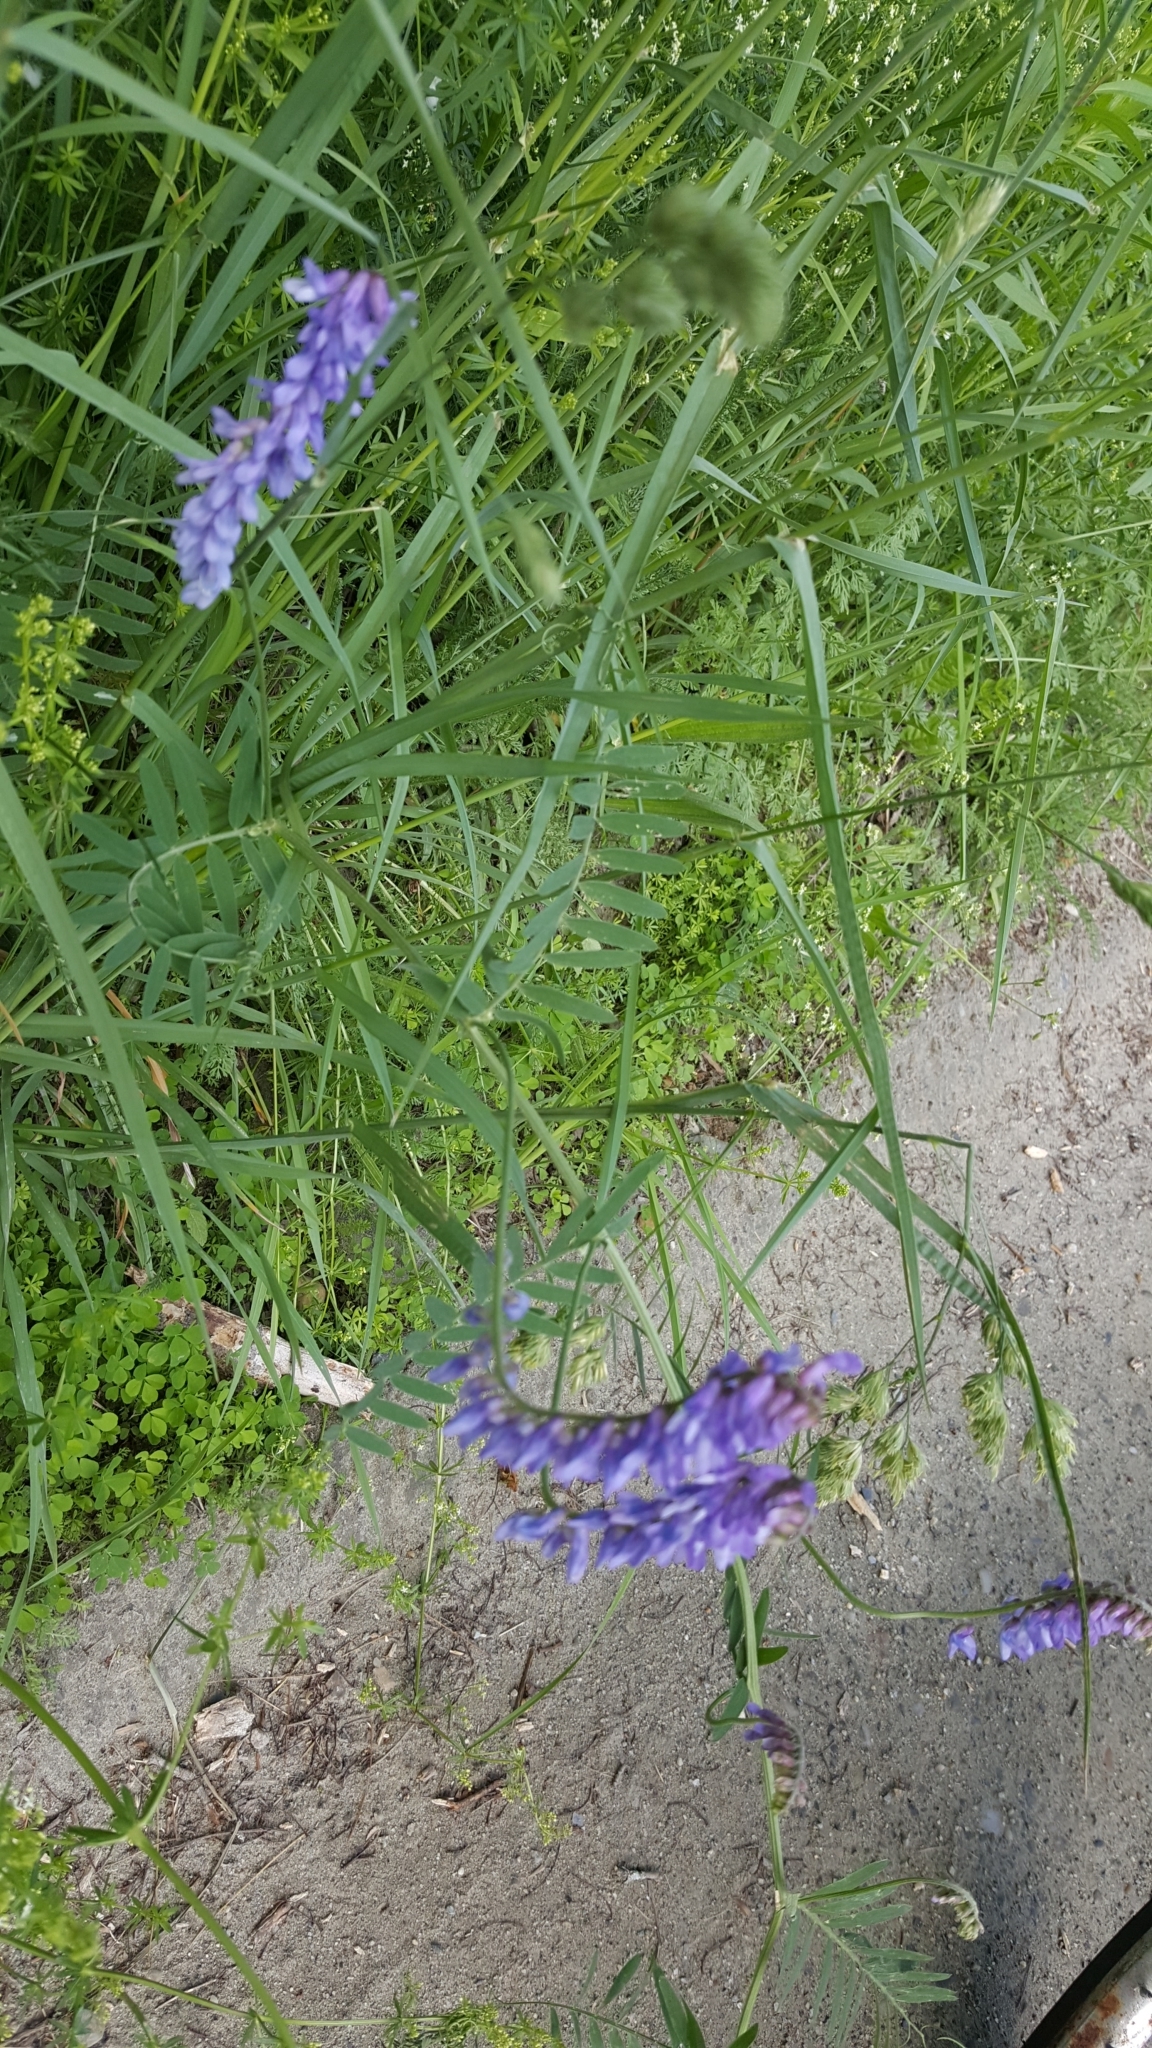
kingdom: Plantae
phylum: Tracheophyta
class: Magnoliopsida
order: Fabales
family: Fabaceae
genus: Vicia
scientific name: Vicia cracca
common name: Bird vetch
